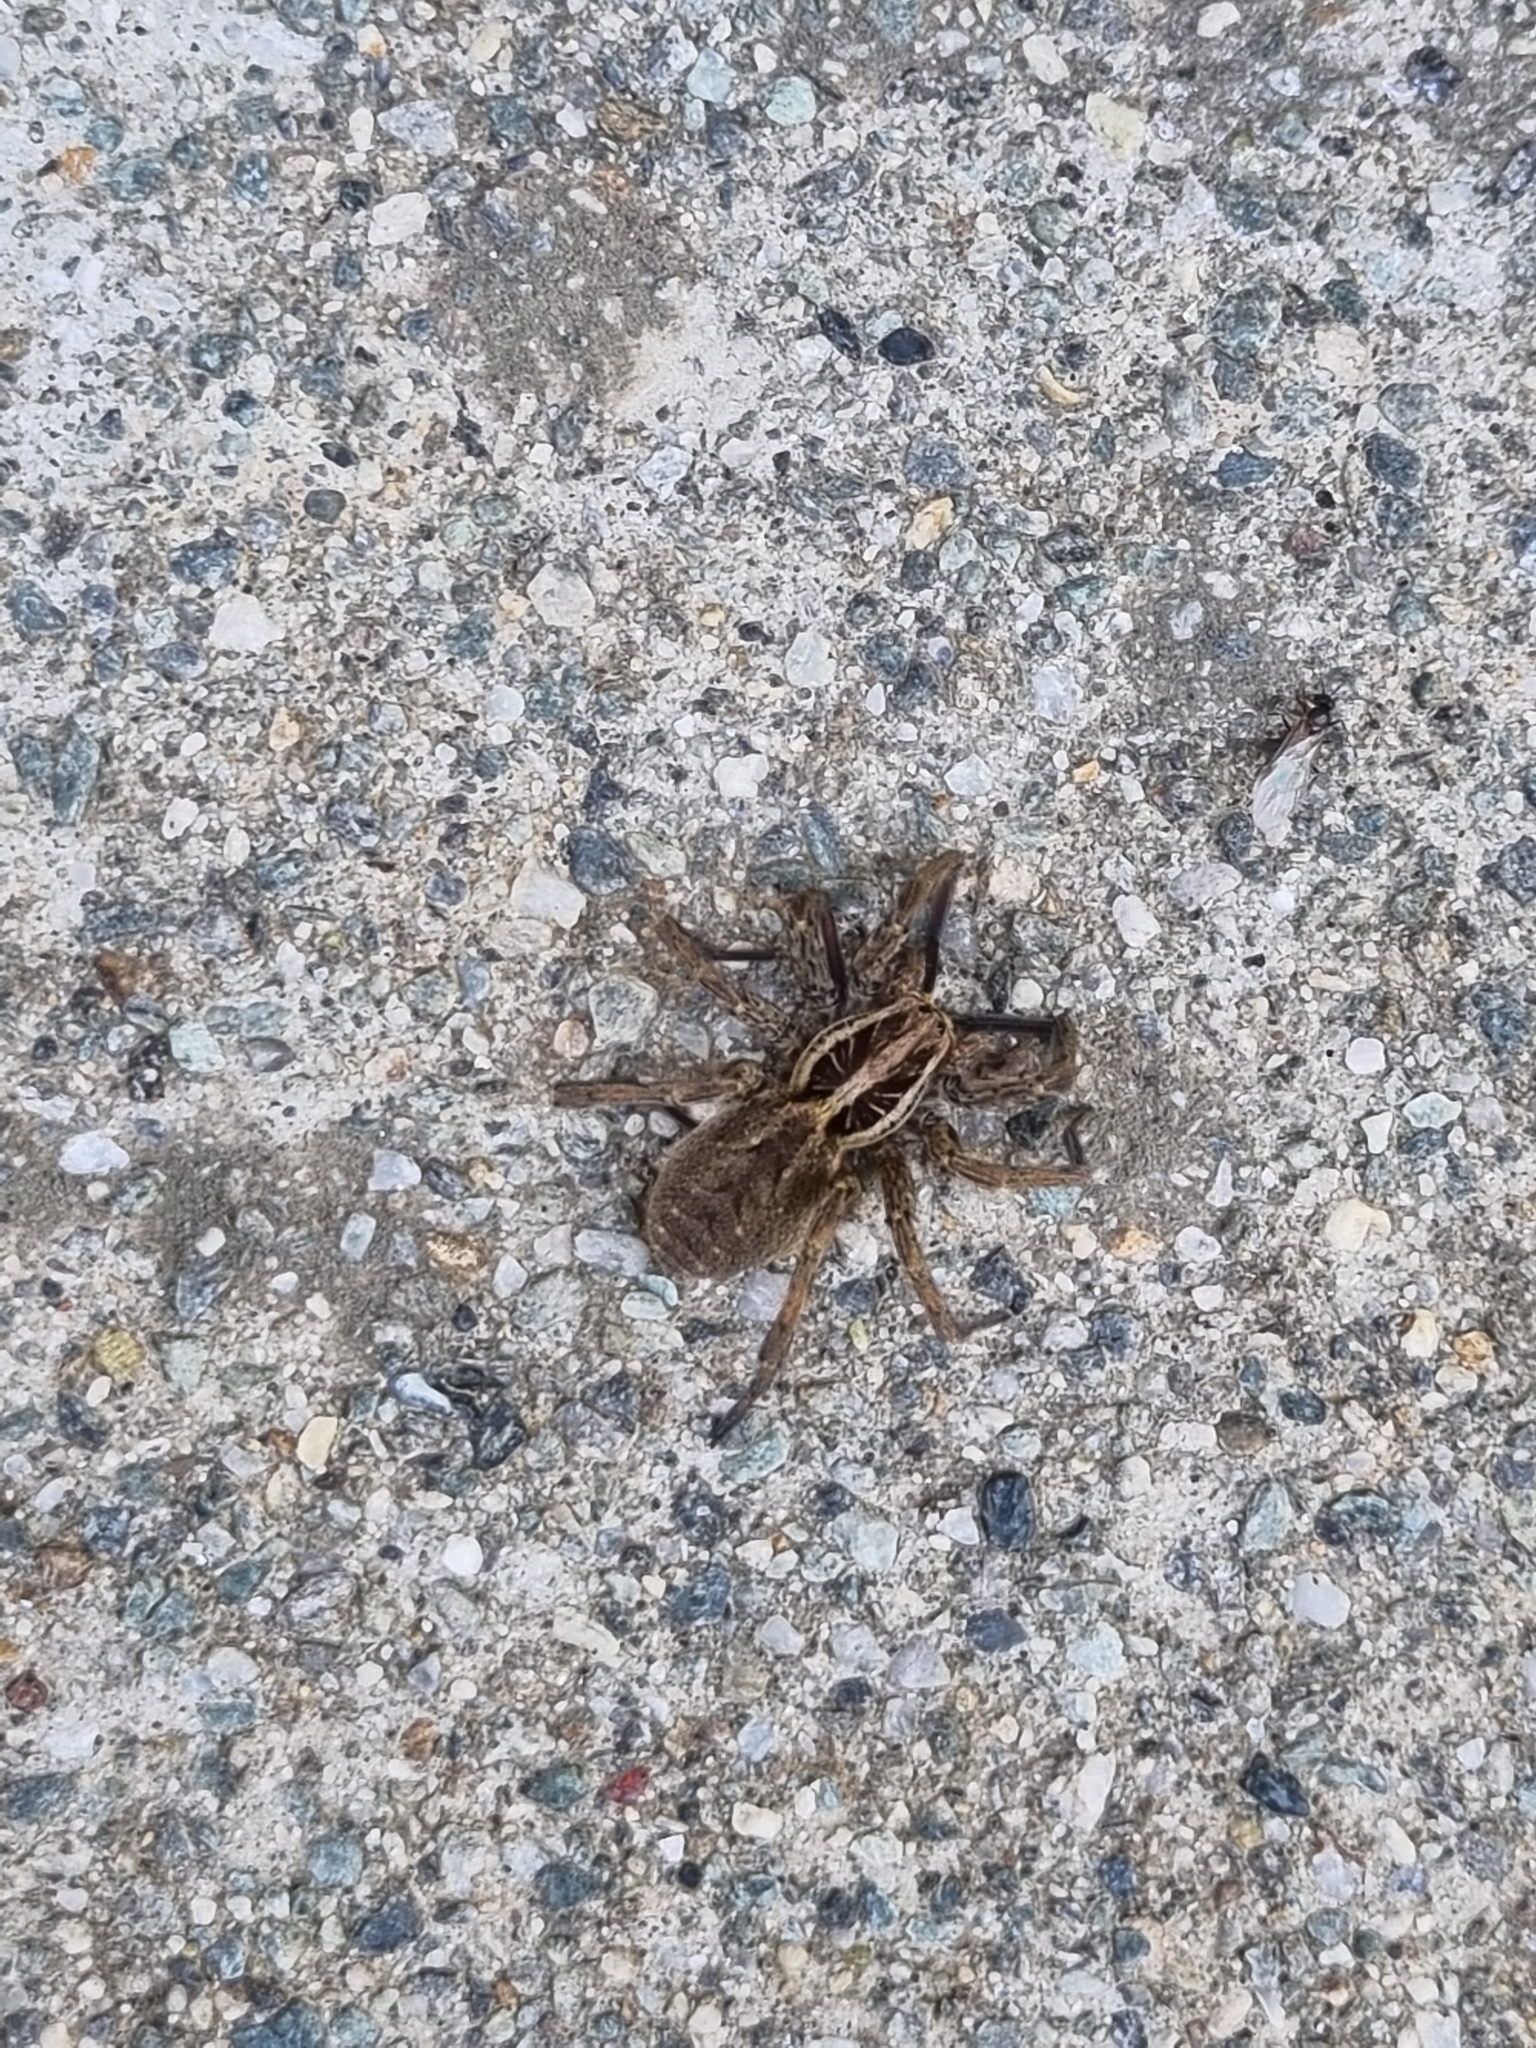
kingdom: Animalia
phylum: Arthropoda
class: Arachnida
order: Araneae
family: Lycosidae
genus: Hogna
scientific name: Hogna radiata
